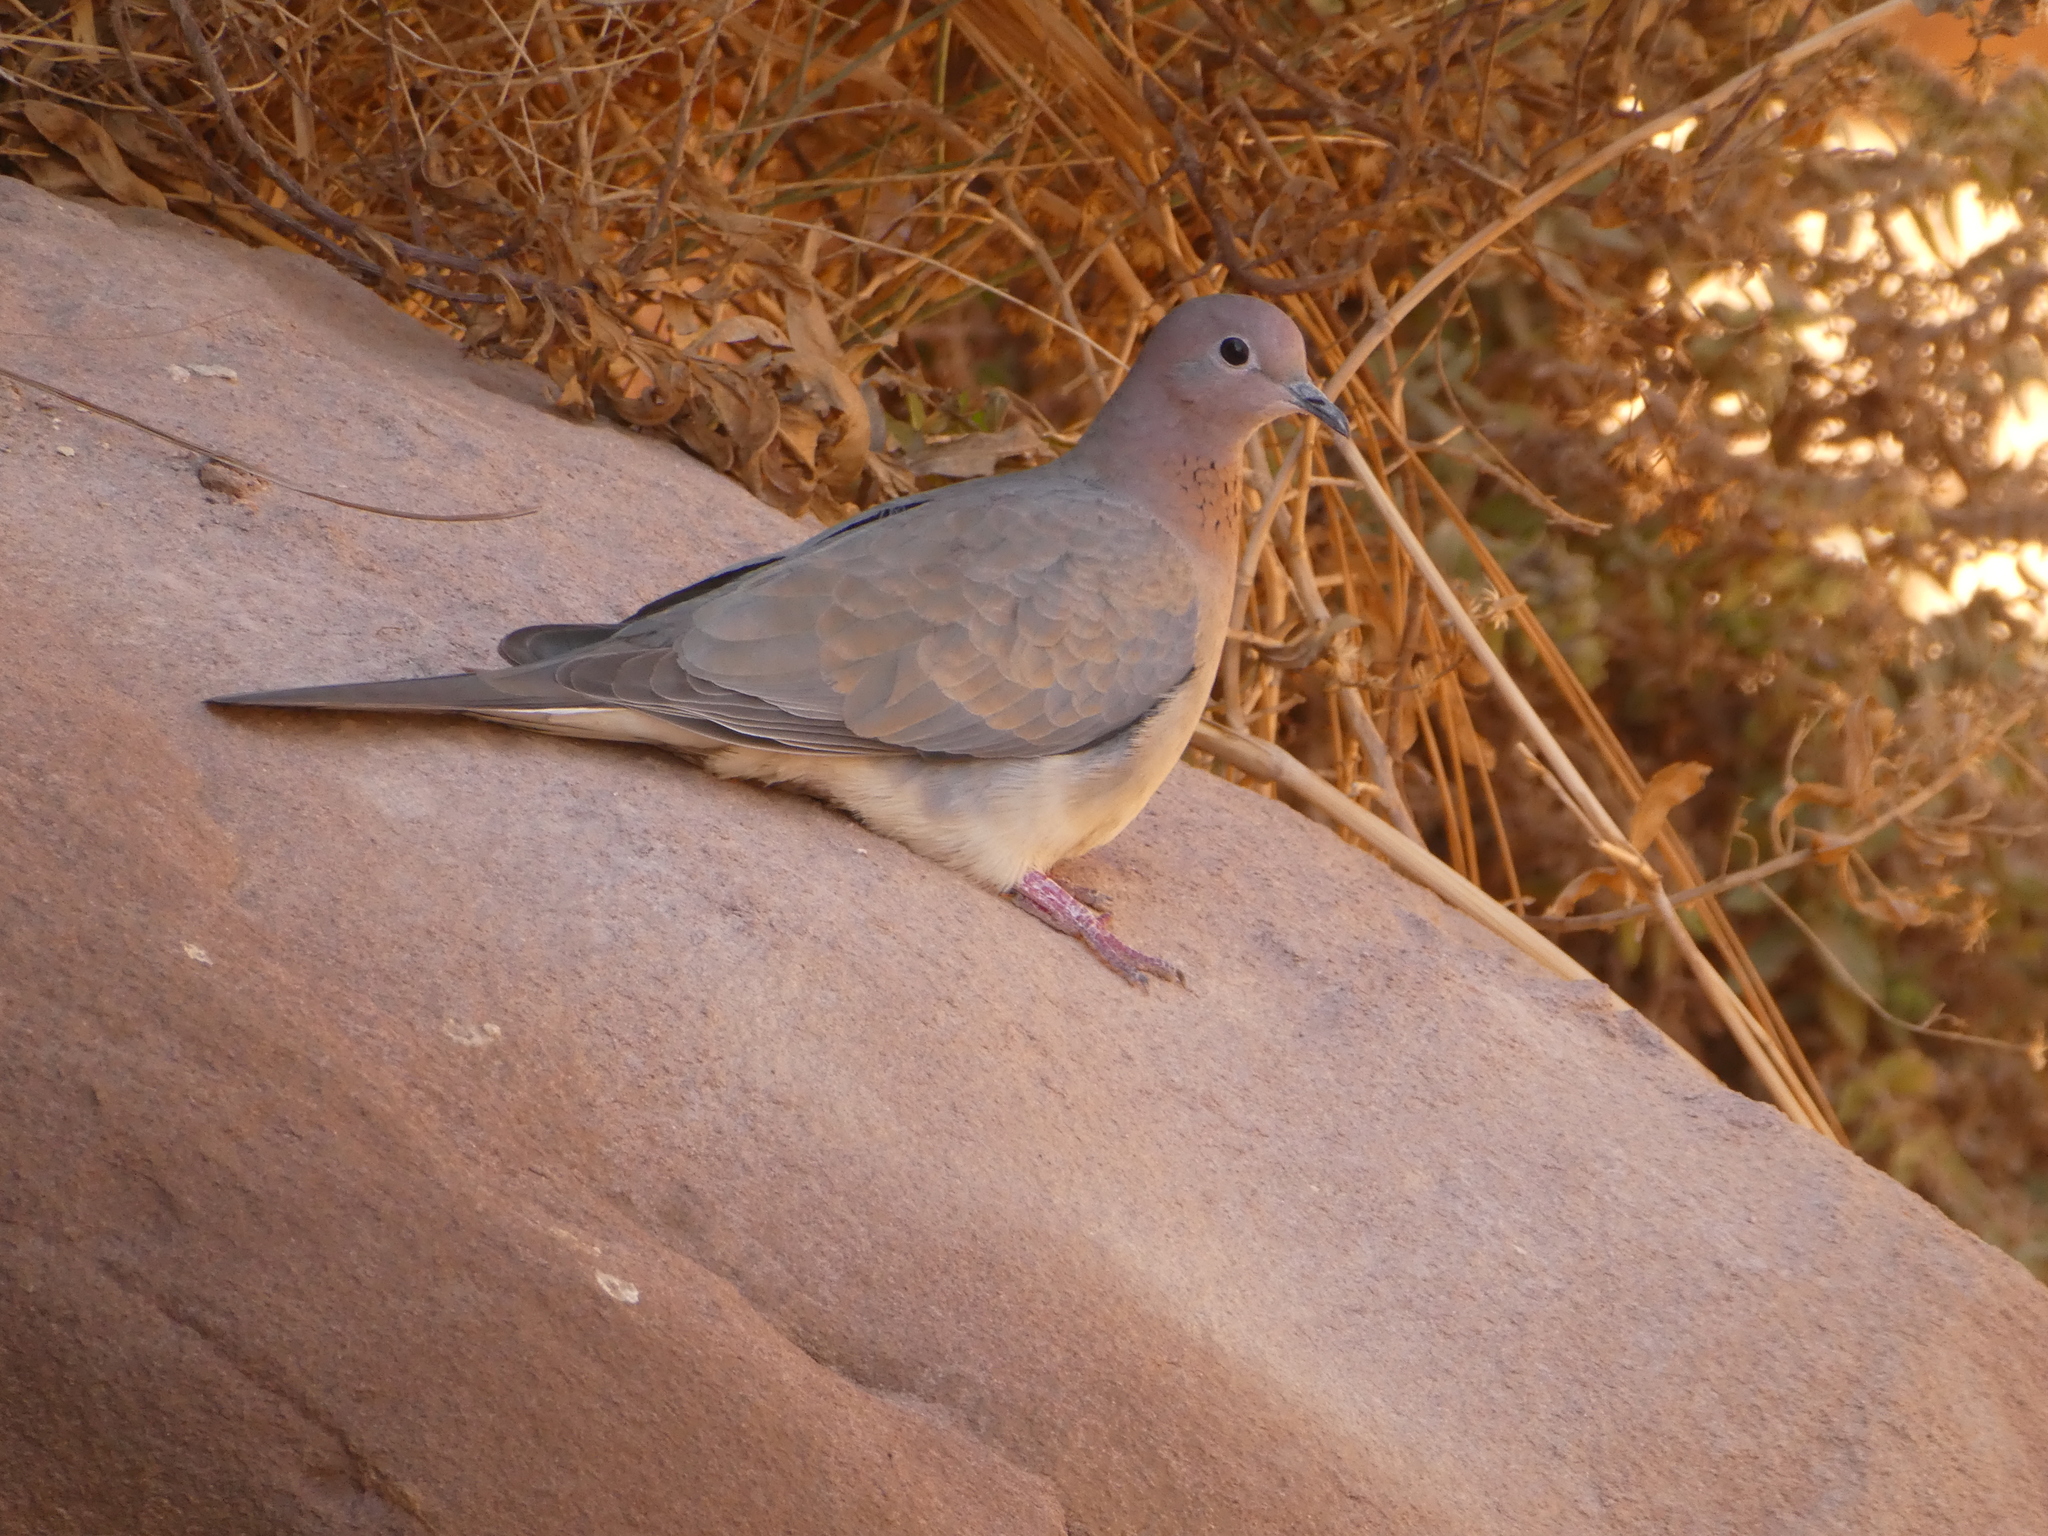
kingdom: Animalia
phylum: Chordata
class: Aves
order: Columbiformes
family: Columbidae
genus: Spilopelia
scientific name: Spilopelia senegalensis
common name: Laughing dove
